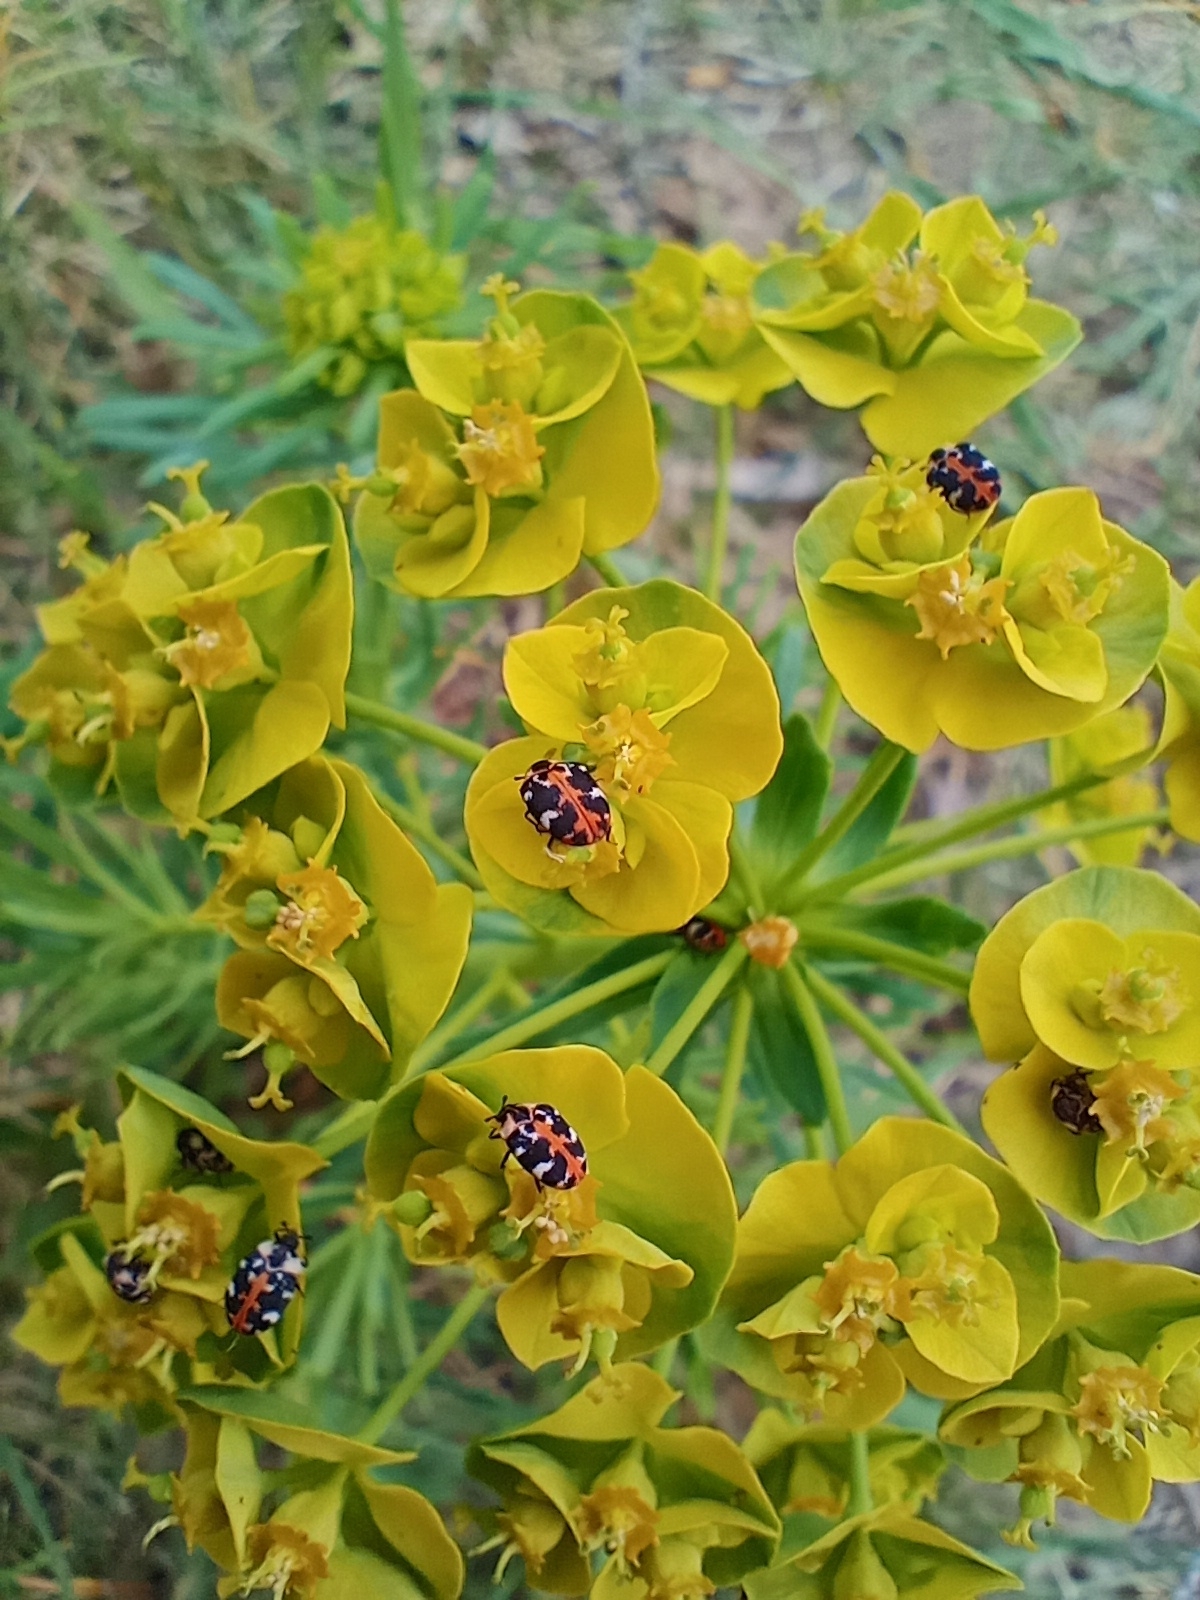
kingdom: Animalia
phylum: Arthropoda
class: Insecta
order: Coleoptera
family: Dermestidae
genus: Anthrenus
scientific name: Anthrenus scrophulariae
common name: Buffalo carpet beetle
